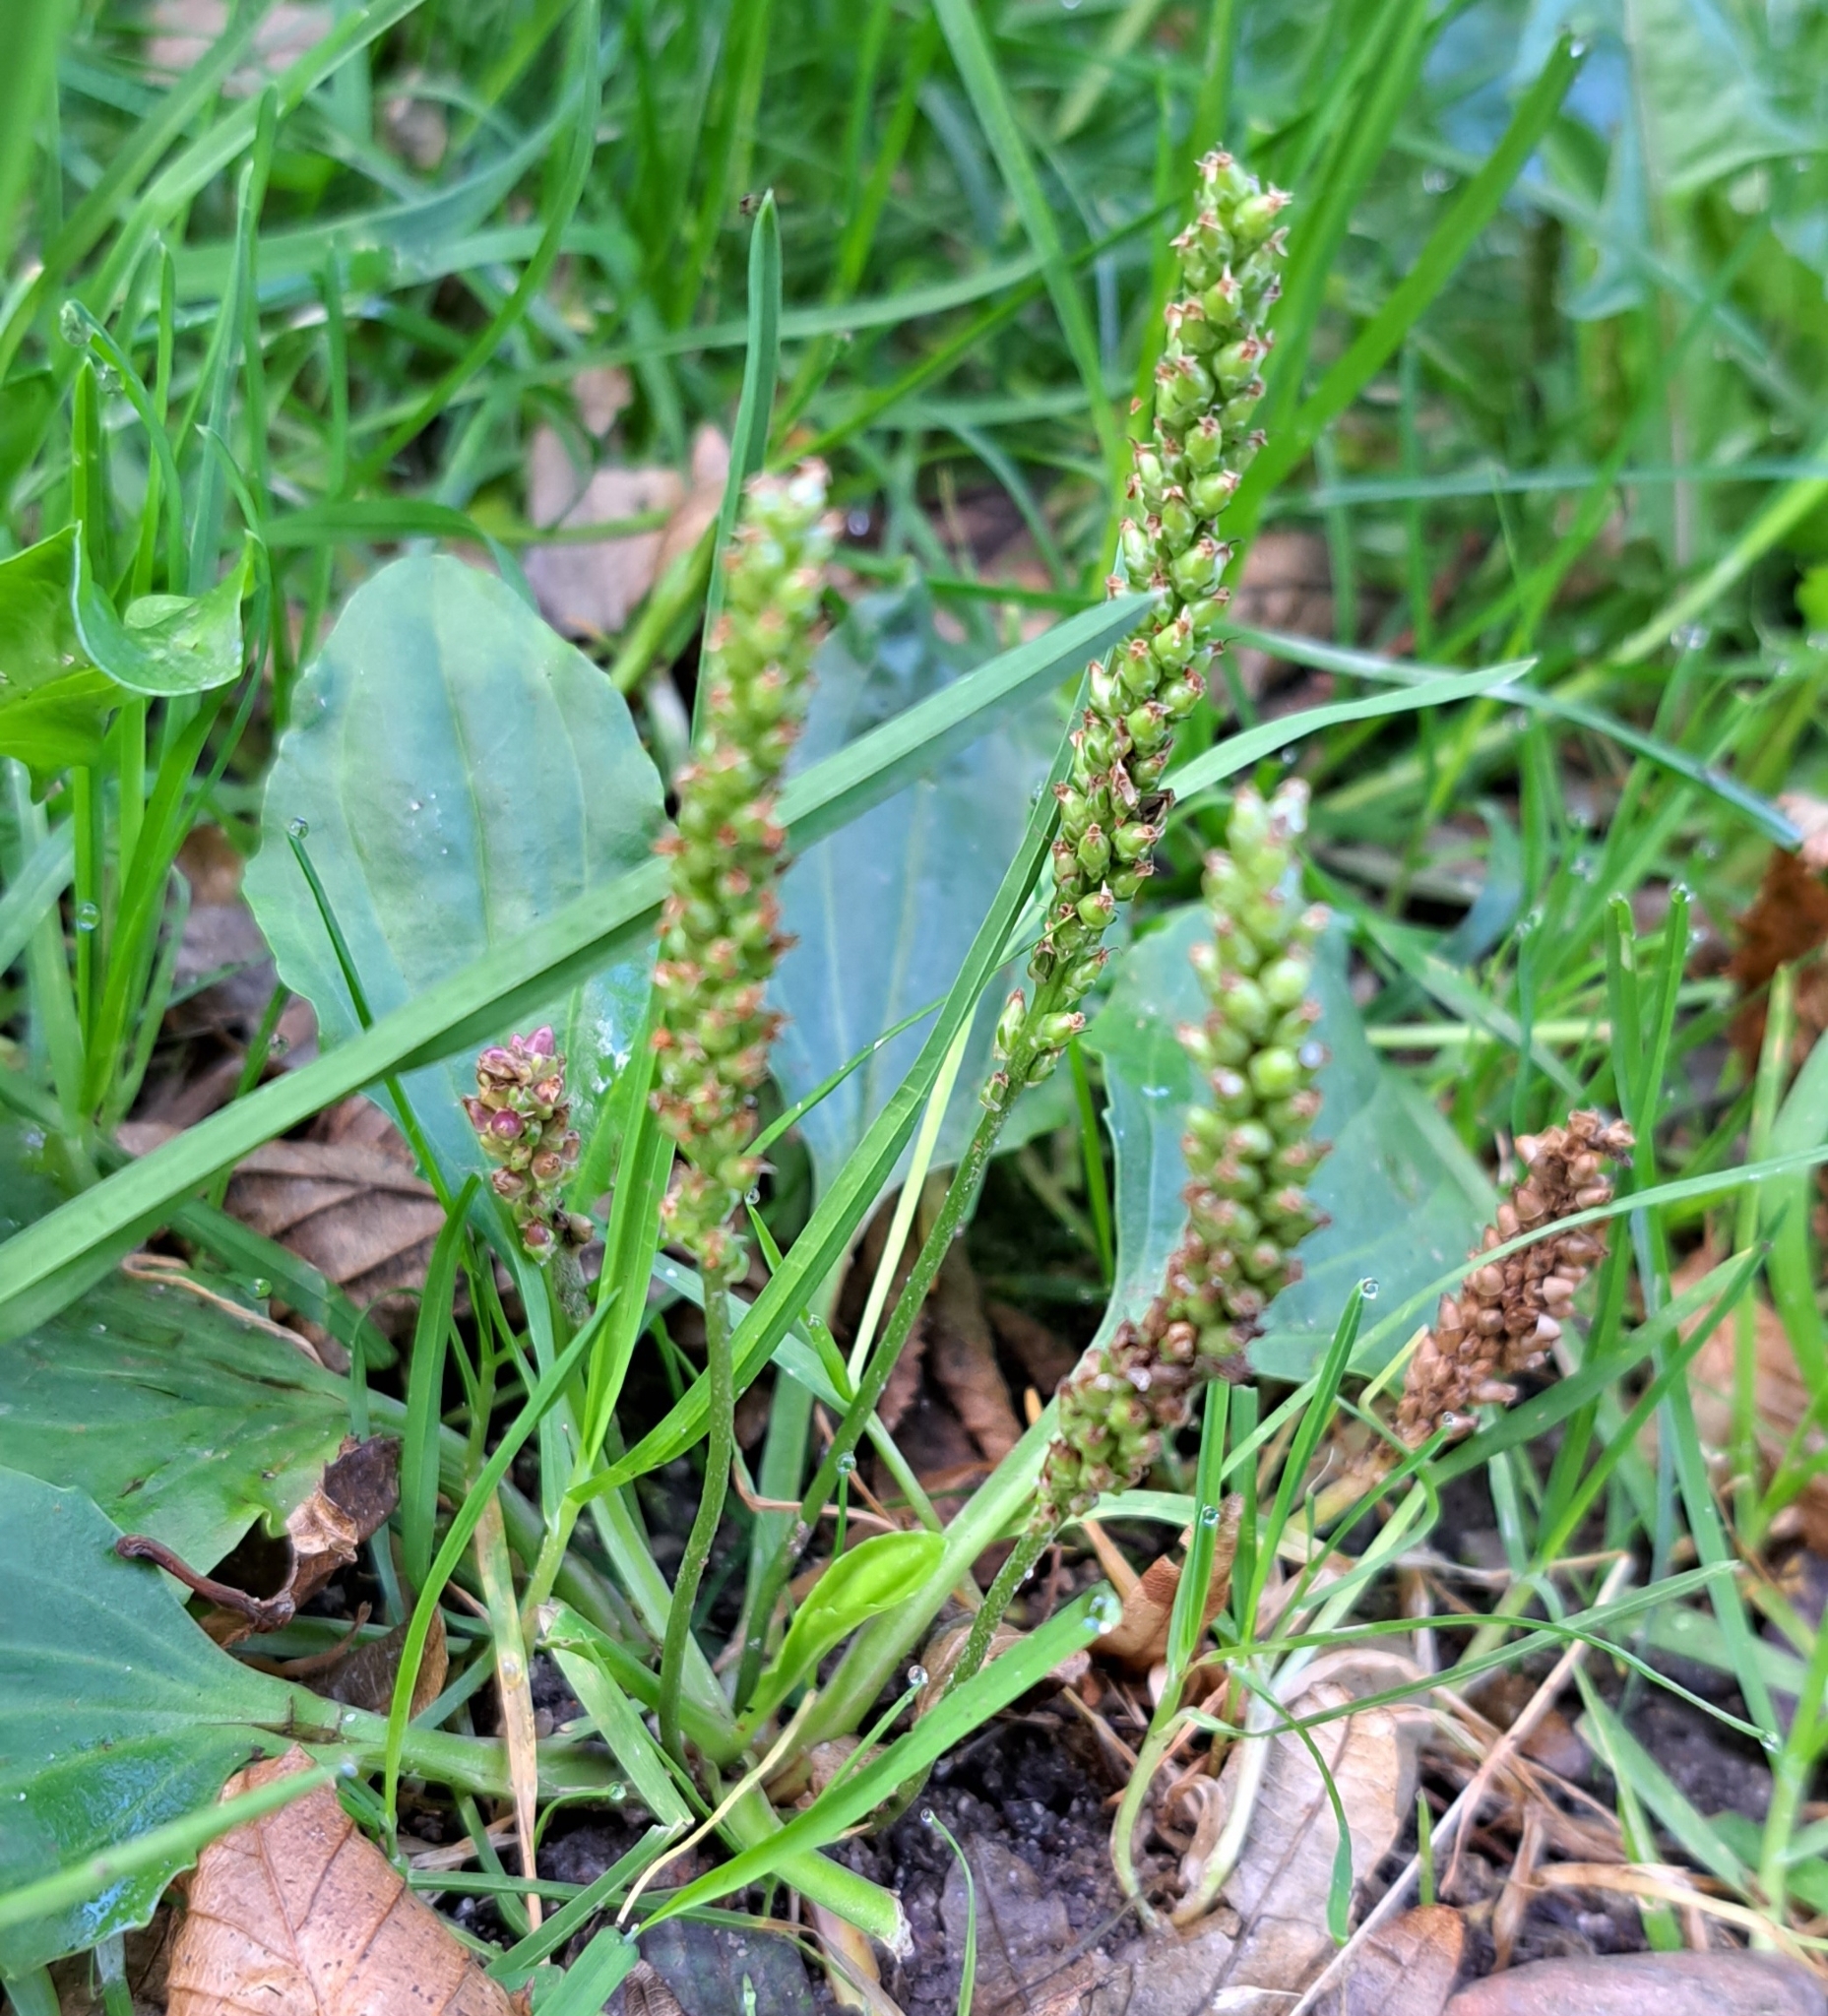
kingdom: Plantae
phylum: Tracheophyta
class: Magnoliopsida
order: Lamiales
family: Plantaginaceae
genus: Plantago
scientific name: Plantago major
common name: Common plantain
